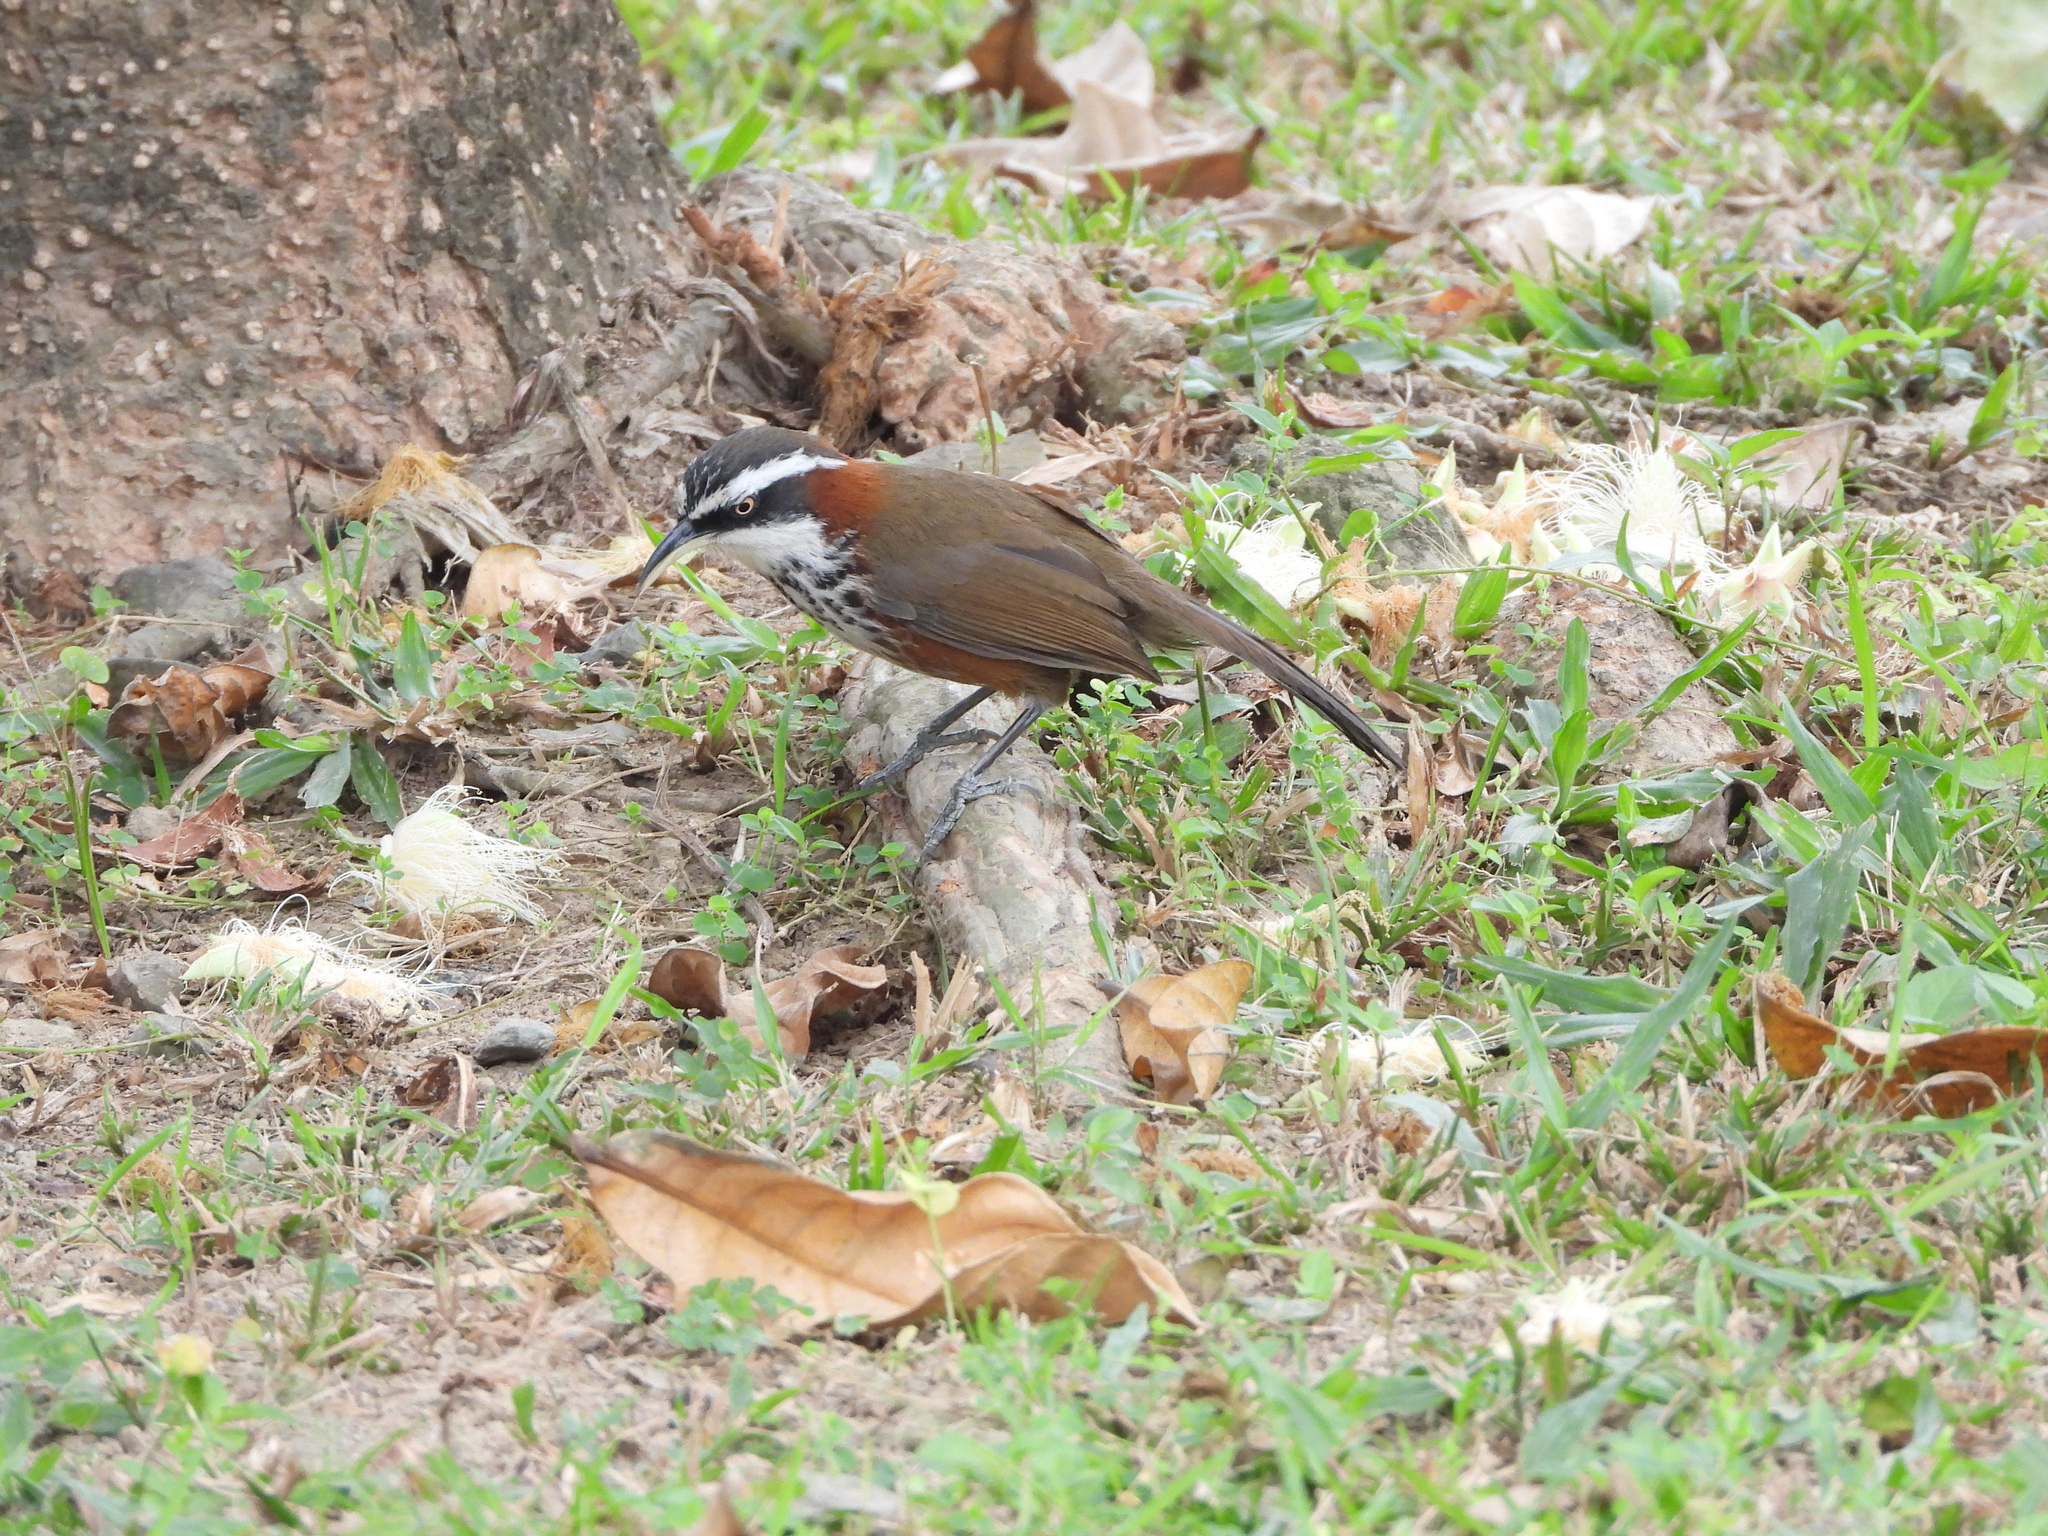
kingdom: Animalia
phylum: Chordata
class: Aves
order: Passeriformes
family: Timaliidae
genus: Pomatorhinus
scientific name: Pomatorhinus musicus
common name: Taiwan scimitar-babbler
